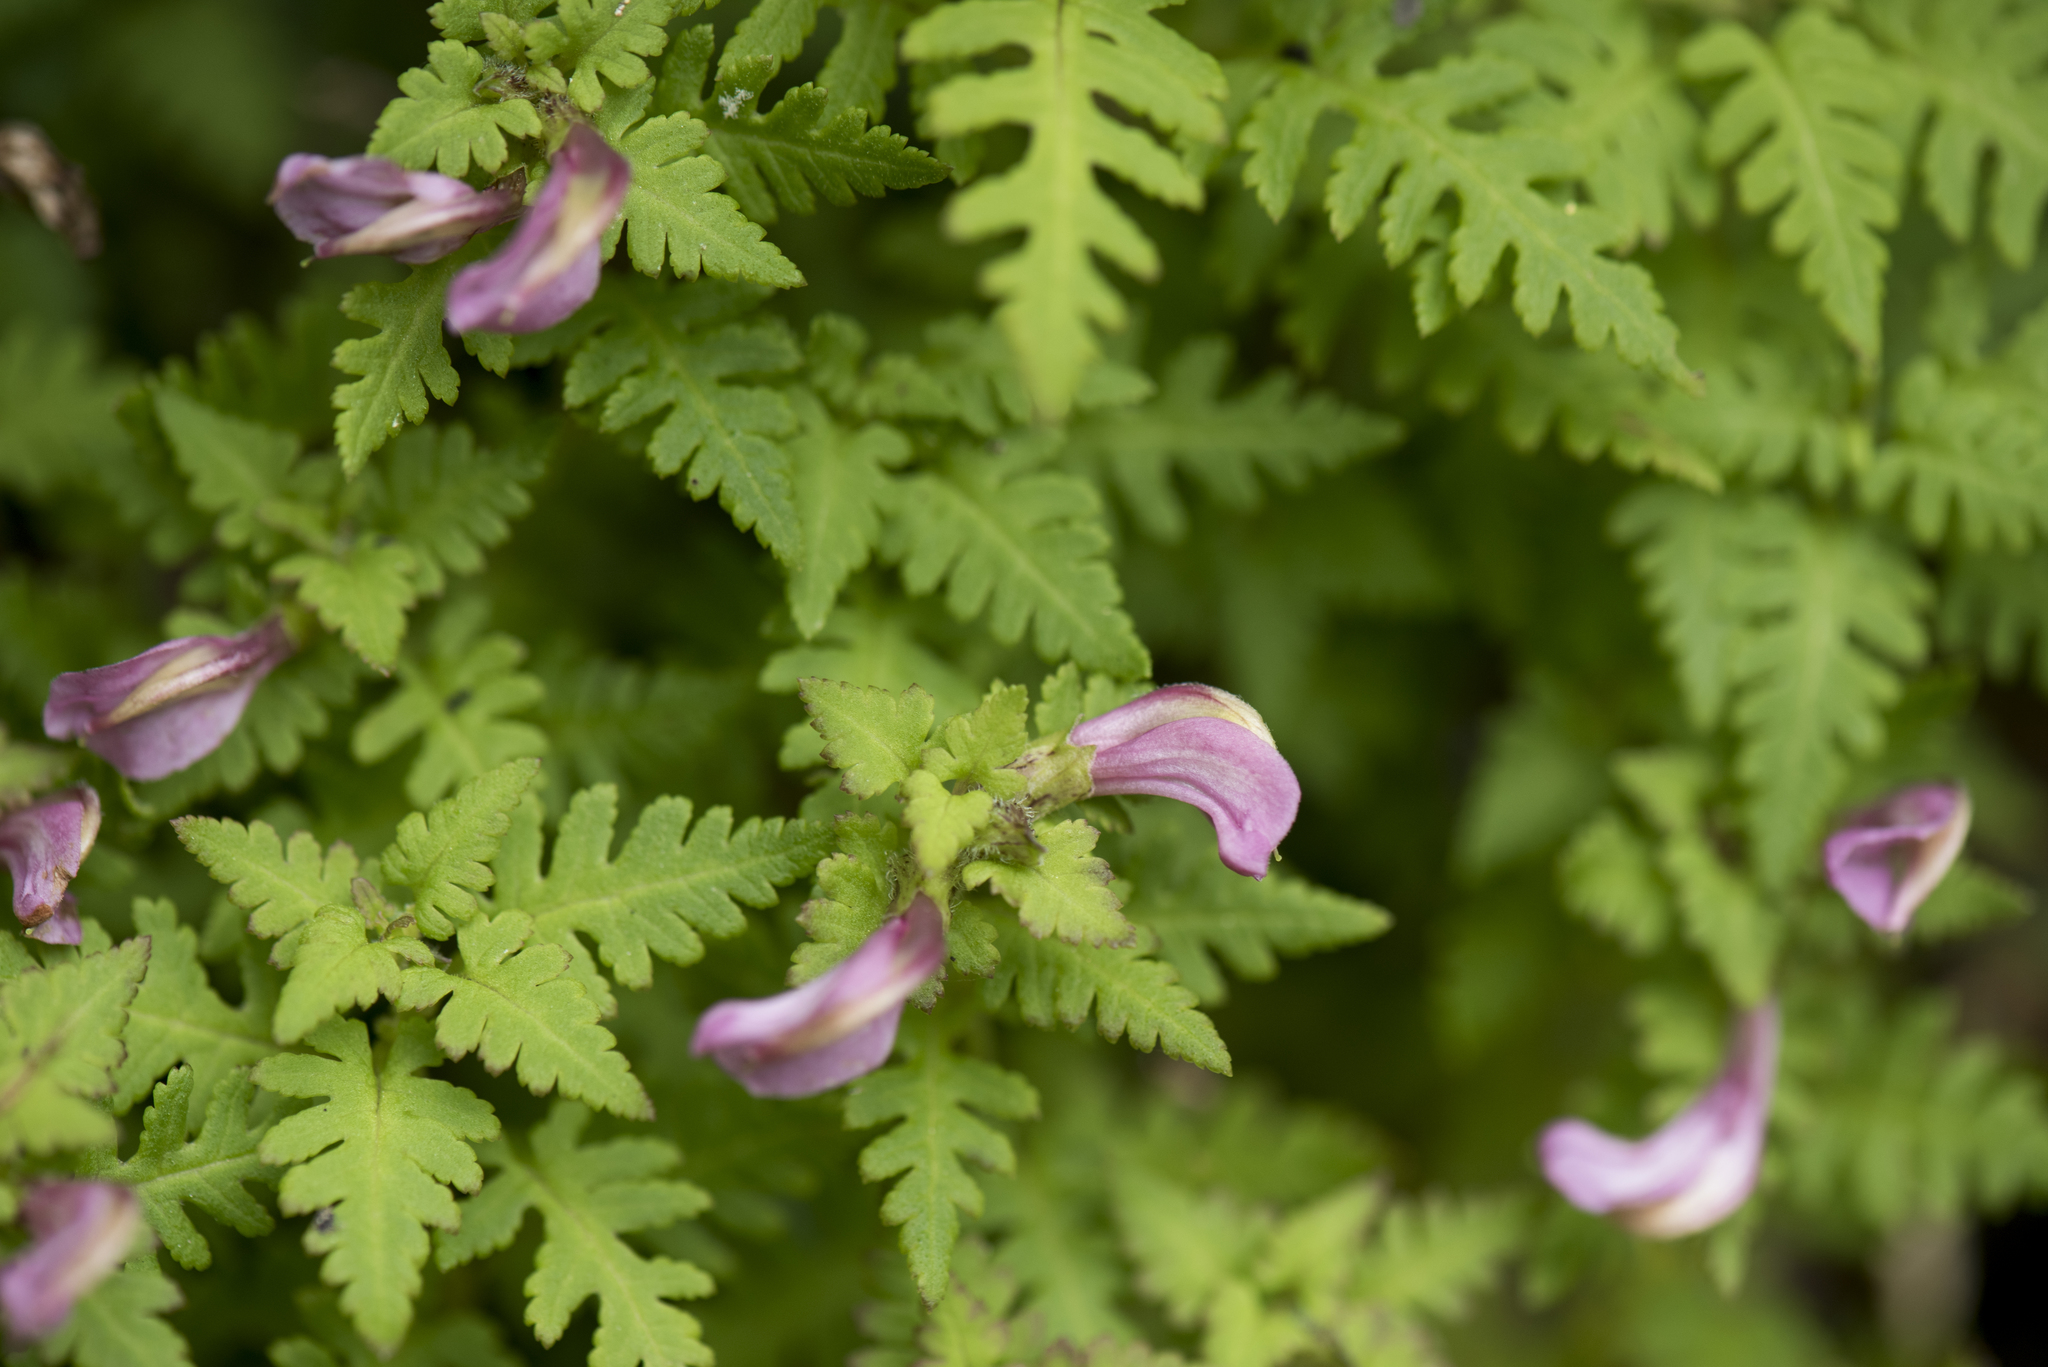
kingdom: Plantae
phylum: Tracheophyta
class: Magnoliopsida
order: Lamiales
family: Orobanchaceae
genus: Pedicularis
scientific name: Pedicularis ikomai
